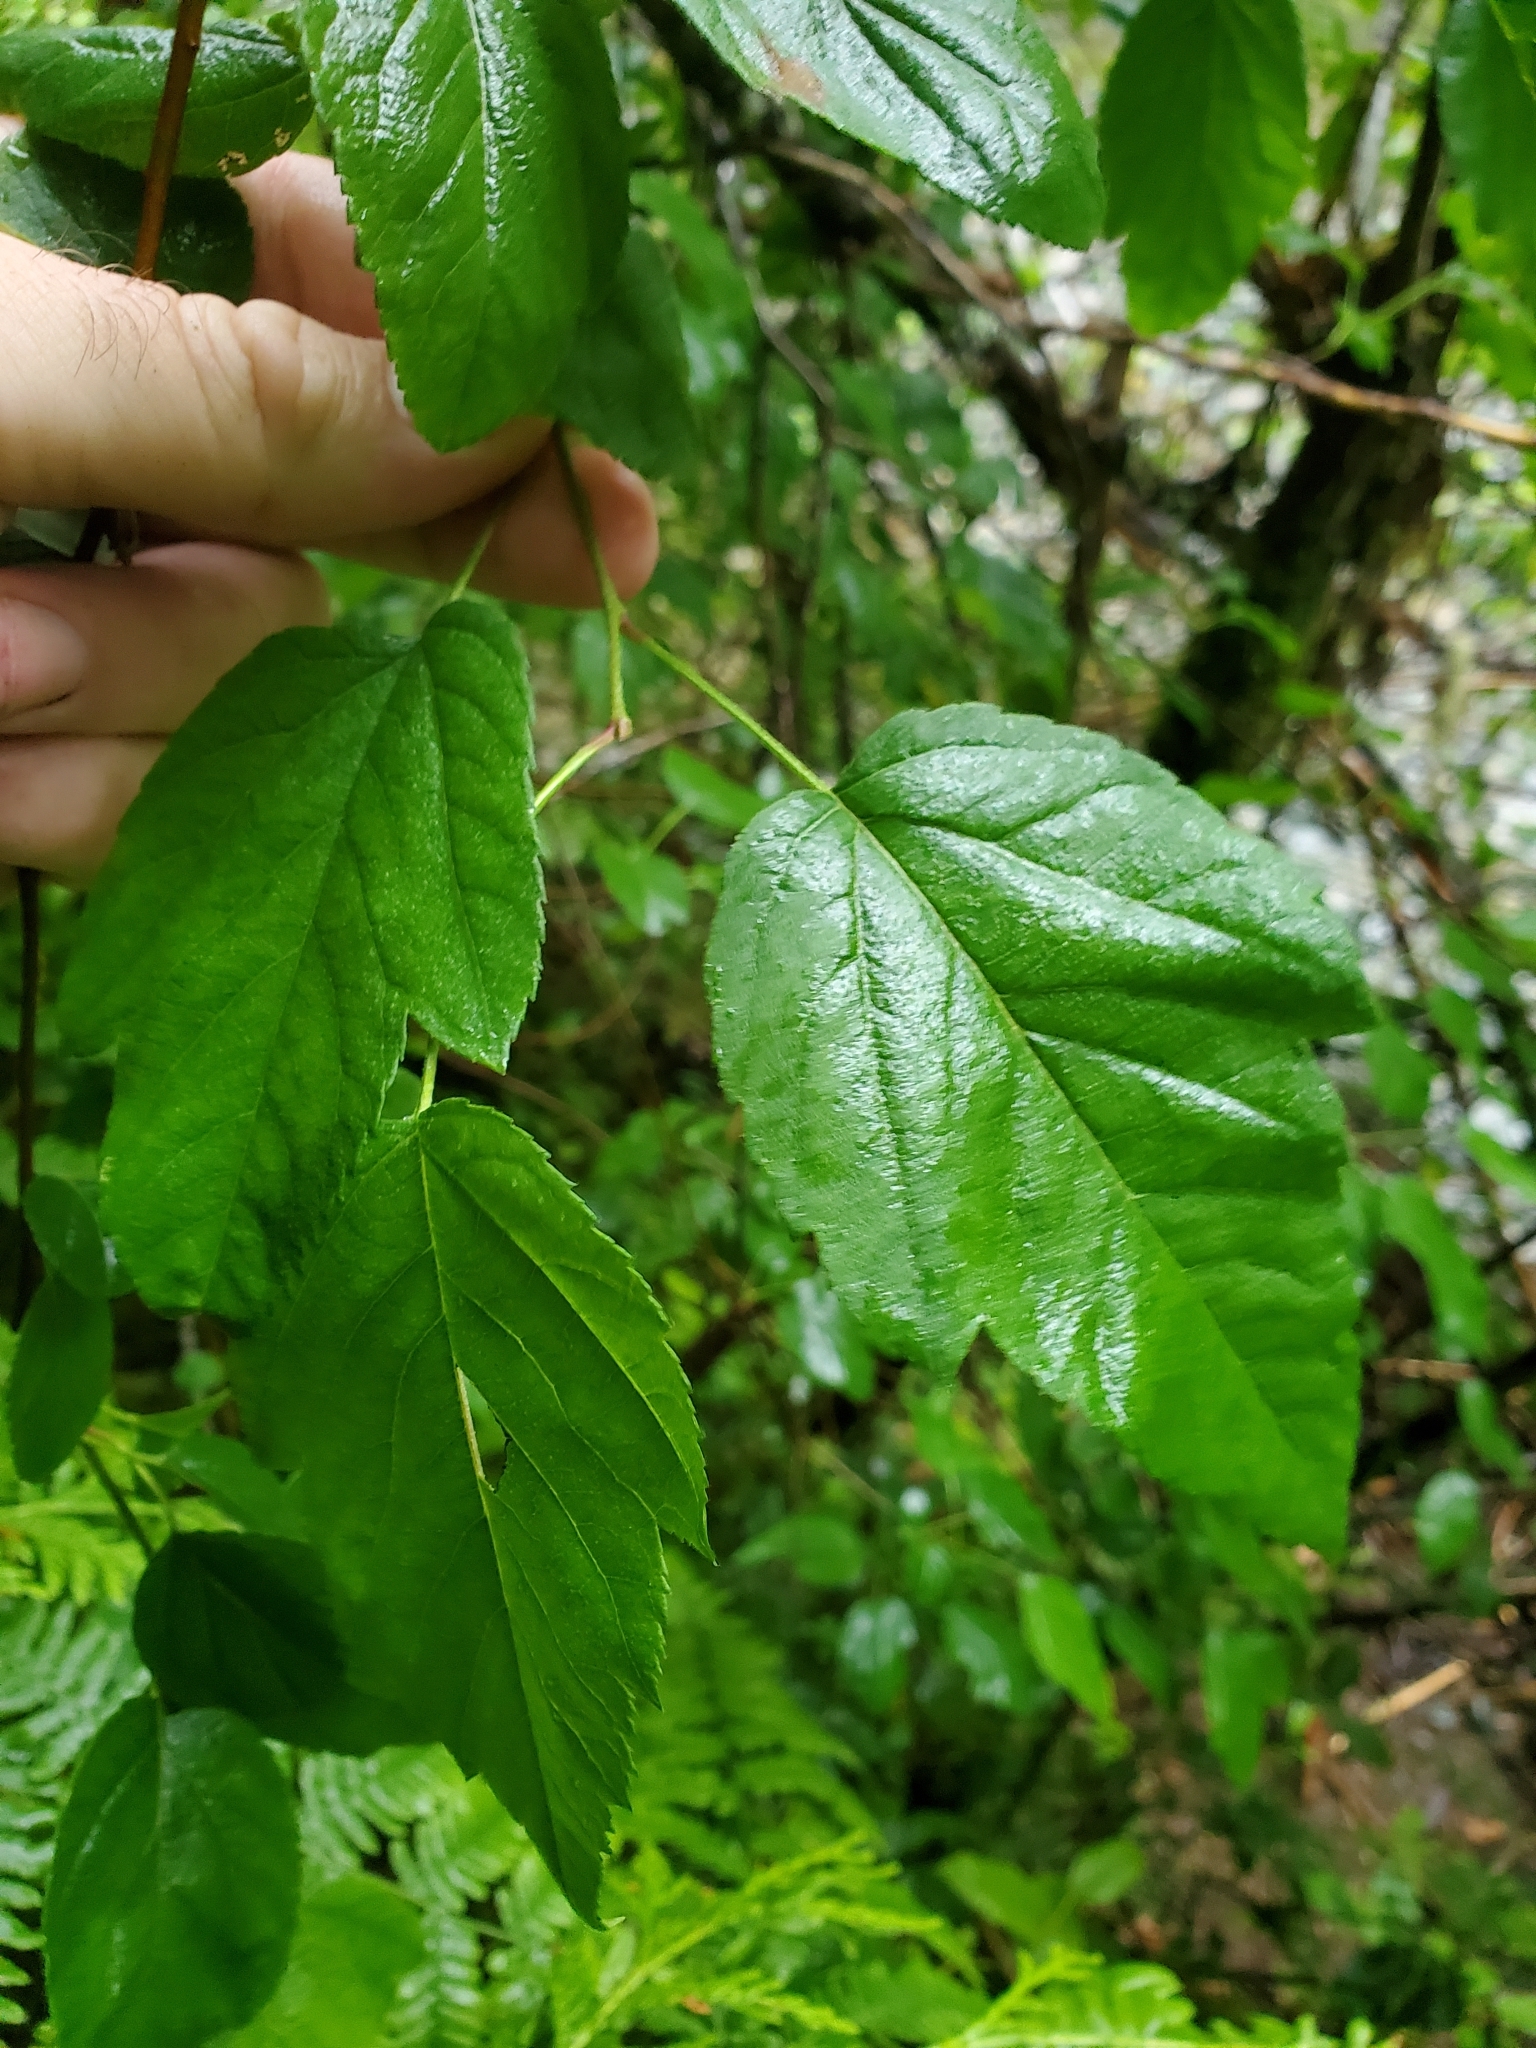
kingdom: Plantae
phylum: Tracheophyta
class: Magnoliopsida
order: Rosales
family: Rosaceae
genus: Malus
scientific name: Malus fusca
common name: Oregon crab apple
